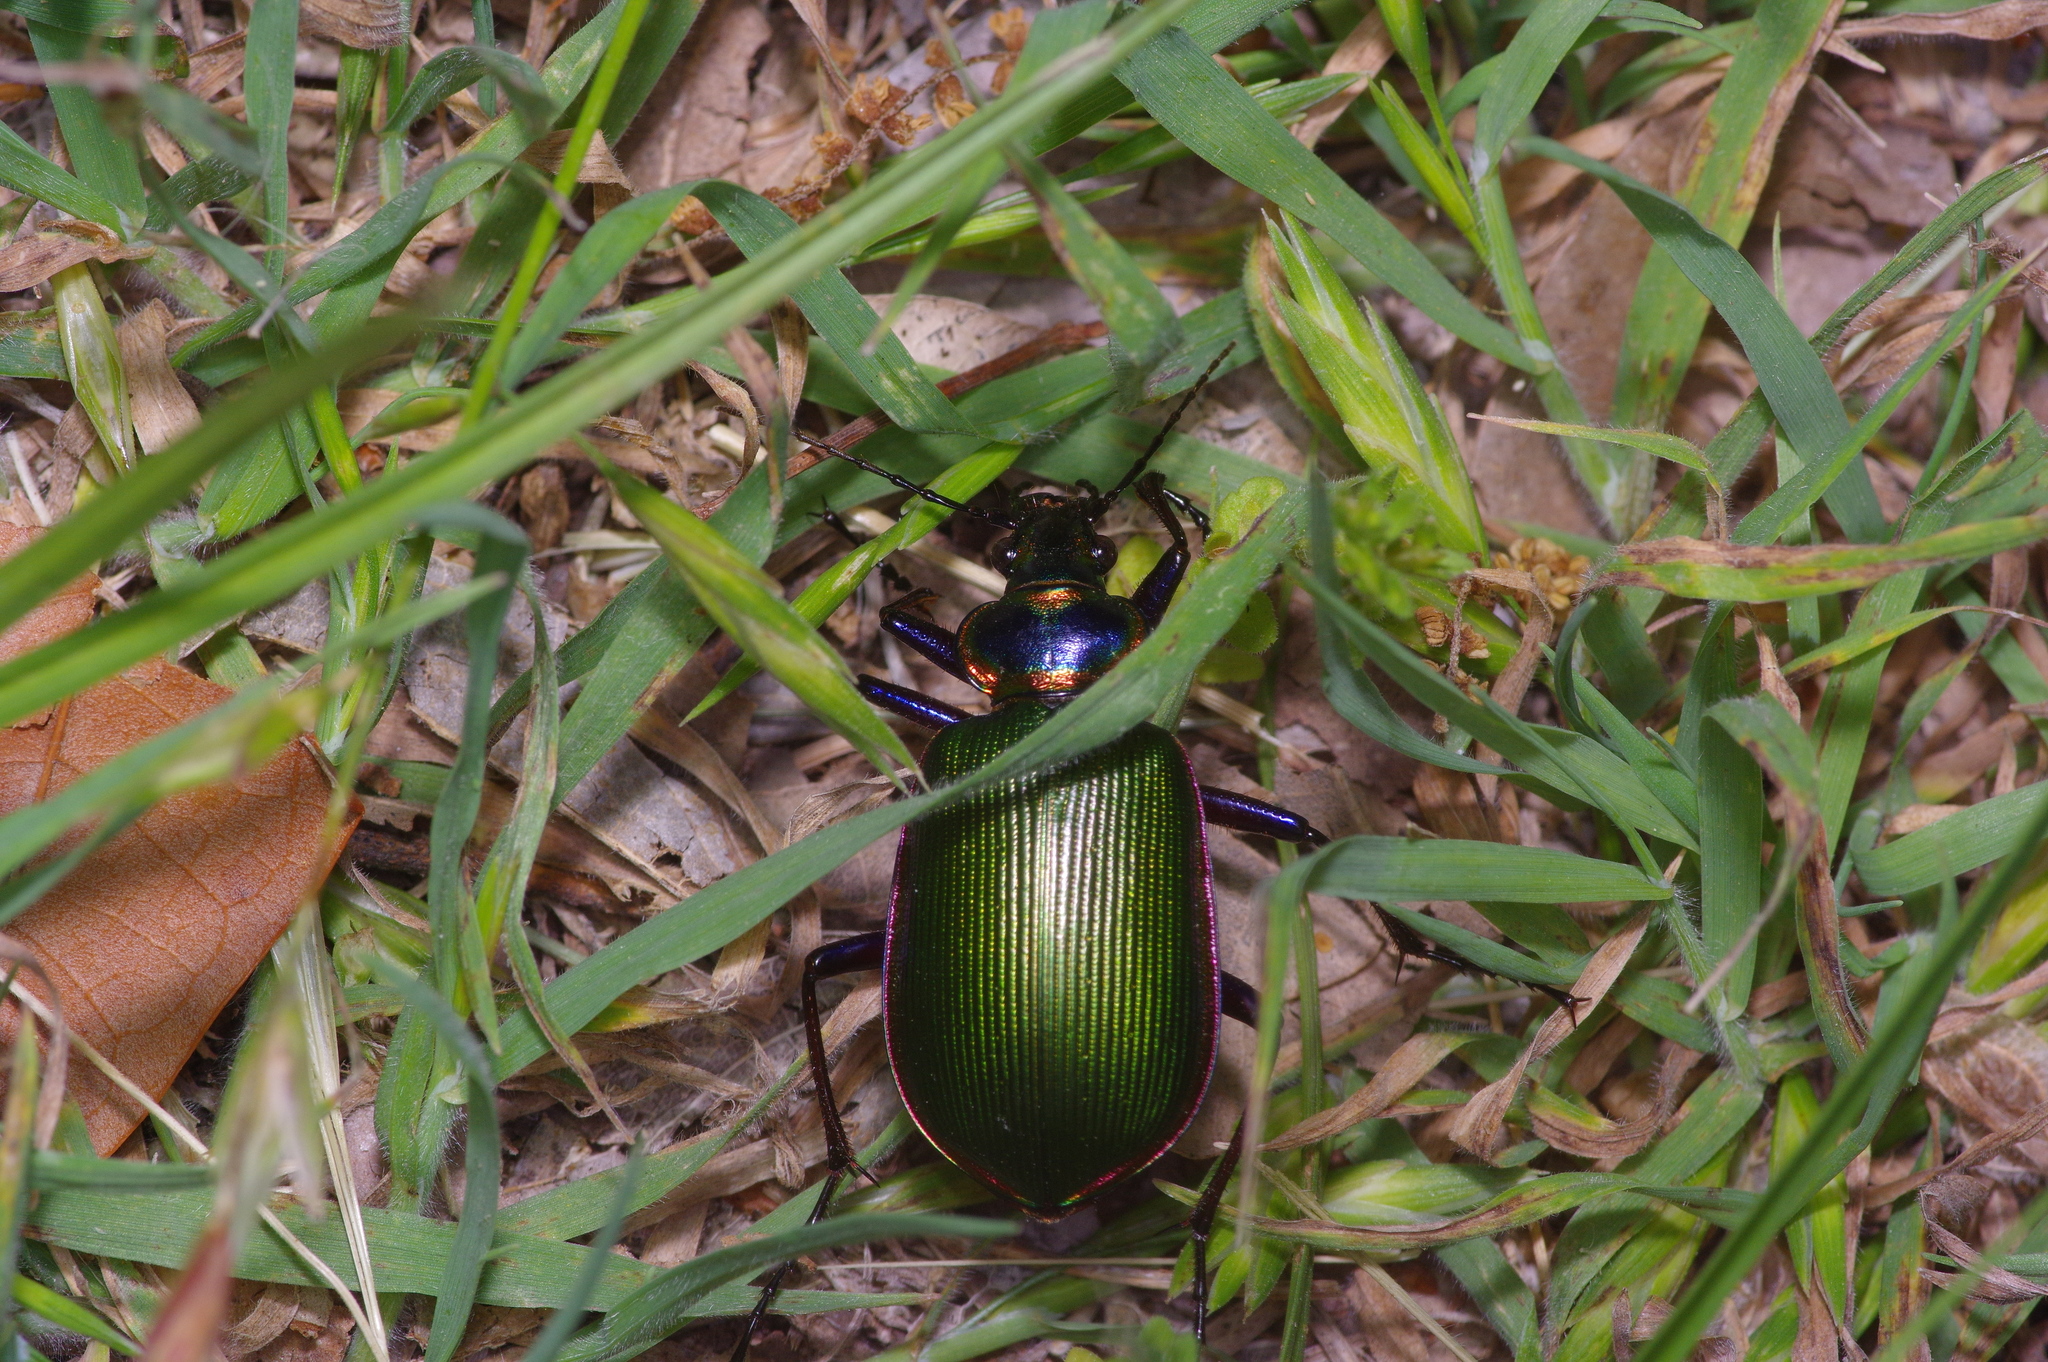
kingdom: Animalia
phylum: Arthropoda
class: Insecta
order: Coleoptera
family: Carabidae
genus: Calosoma
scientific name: Calosoma scrutator
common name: Fiery searcher beetle
